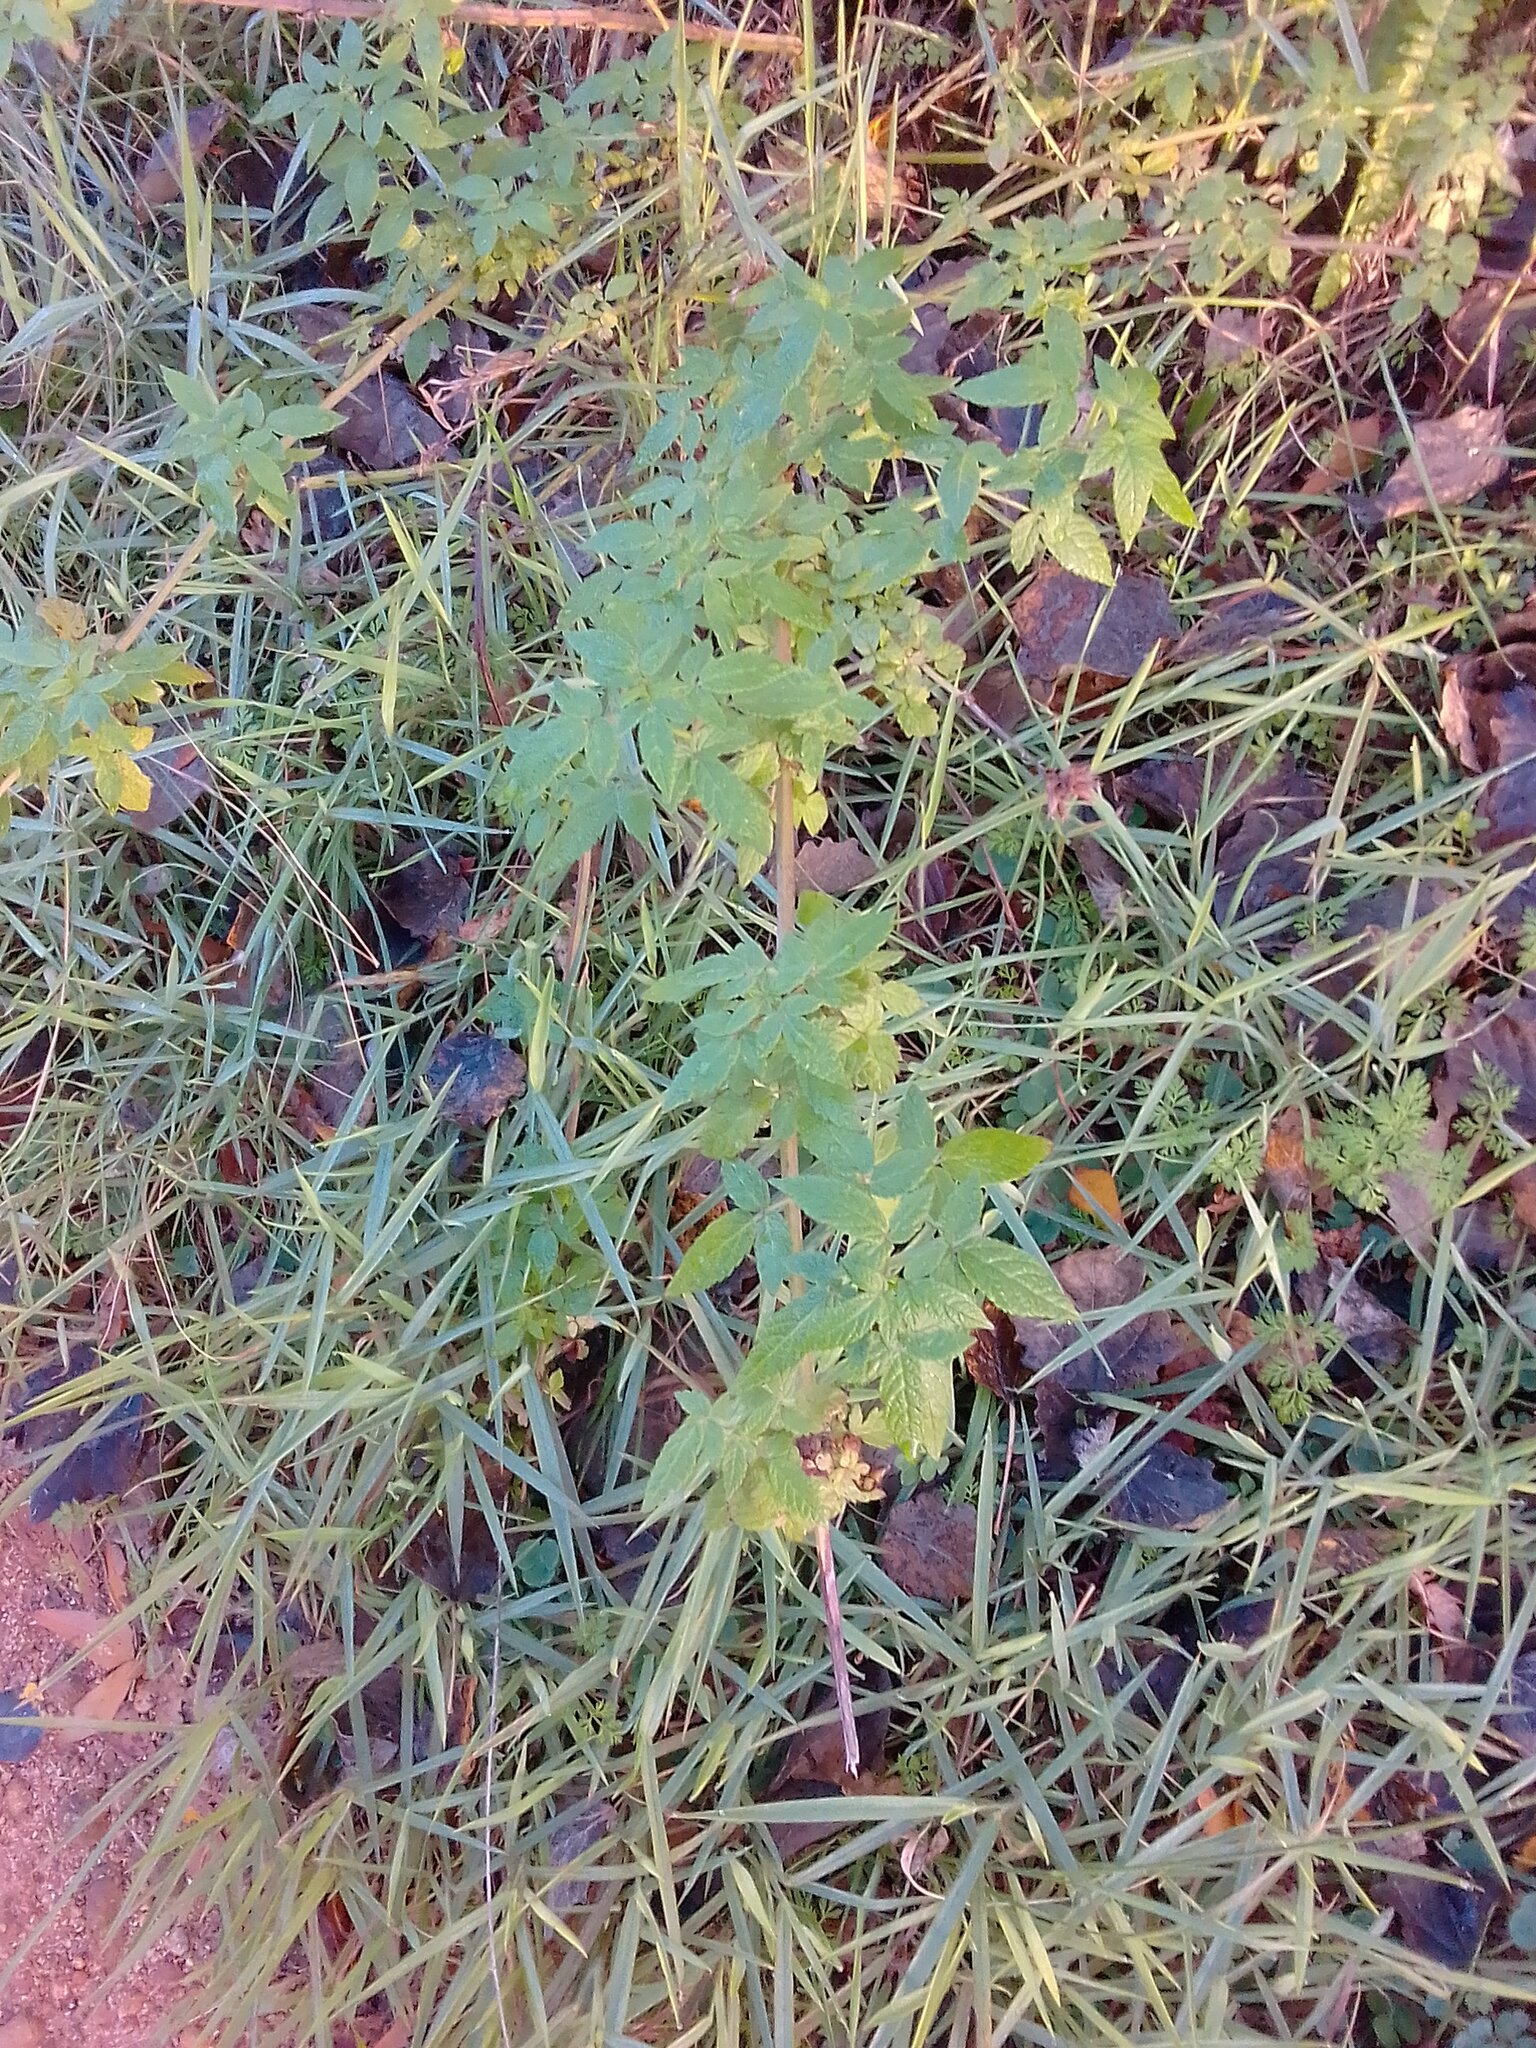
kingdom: Plantae
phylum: Tracheophyta
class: Magnoliopsida
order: Lamiales
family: Lamiaceae
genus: Cedronella
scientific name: Cedronella canariensis
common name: Canary islands balm
